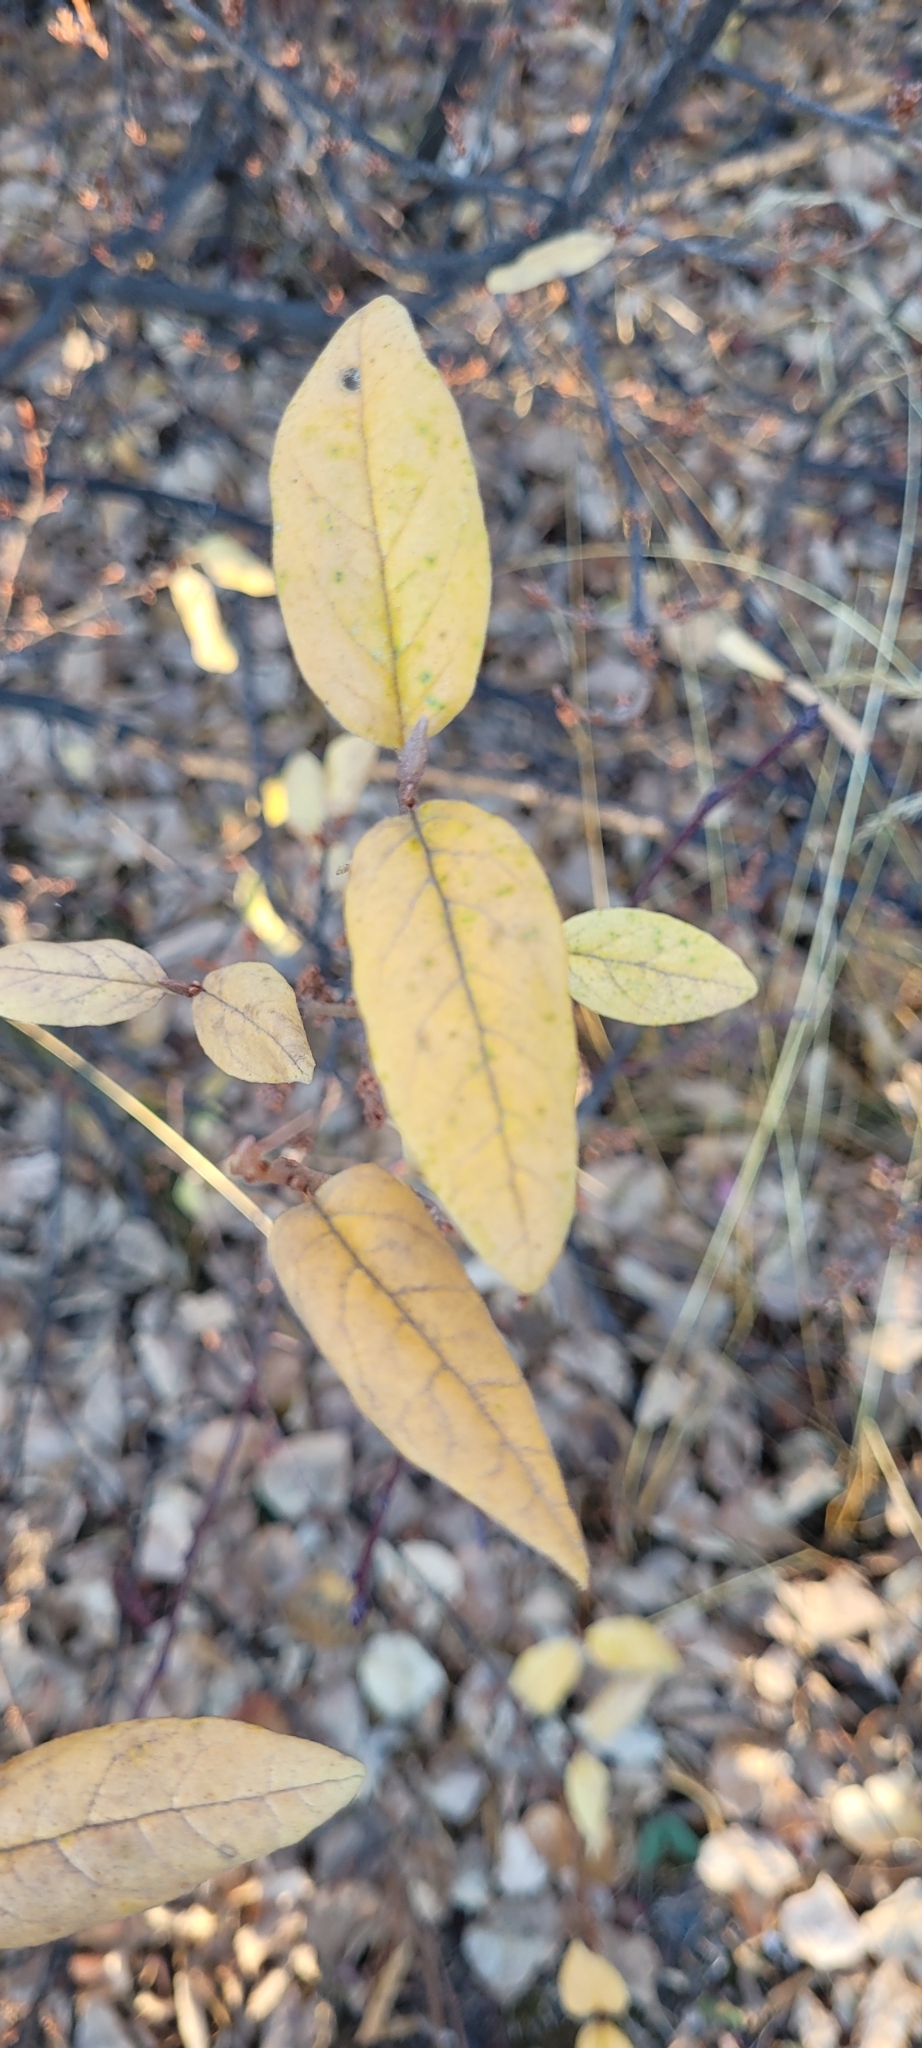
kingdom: Plantae
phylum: Tracheophyta
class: Magnoliopsida
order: Rosales
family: Elaeagnaceae
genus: Shepherdia
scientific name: Shepherdia canadensis
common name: Soapberry
